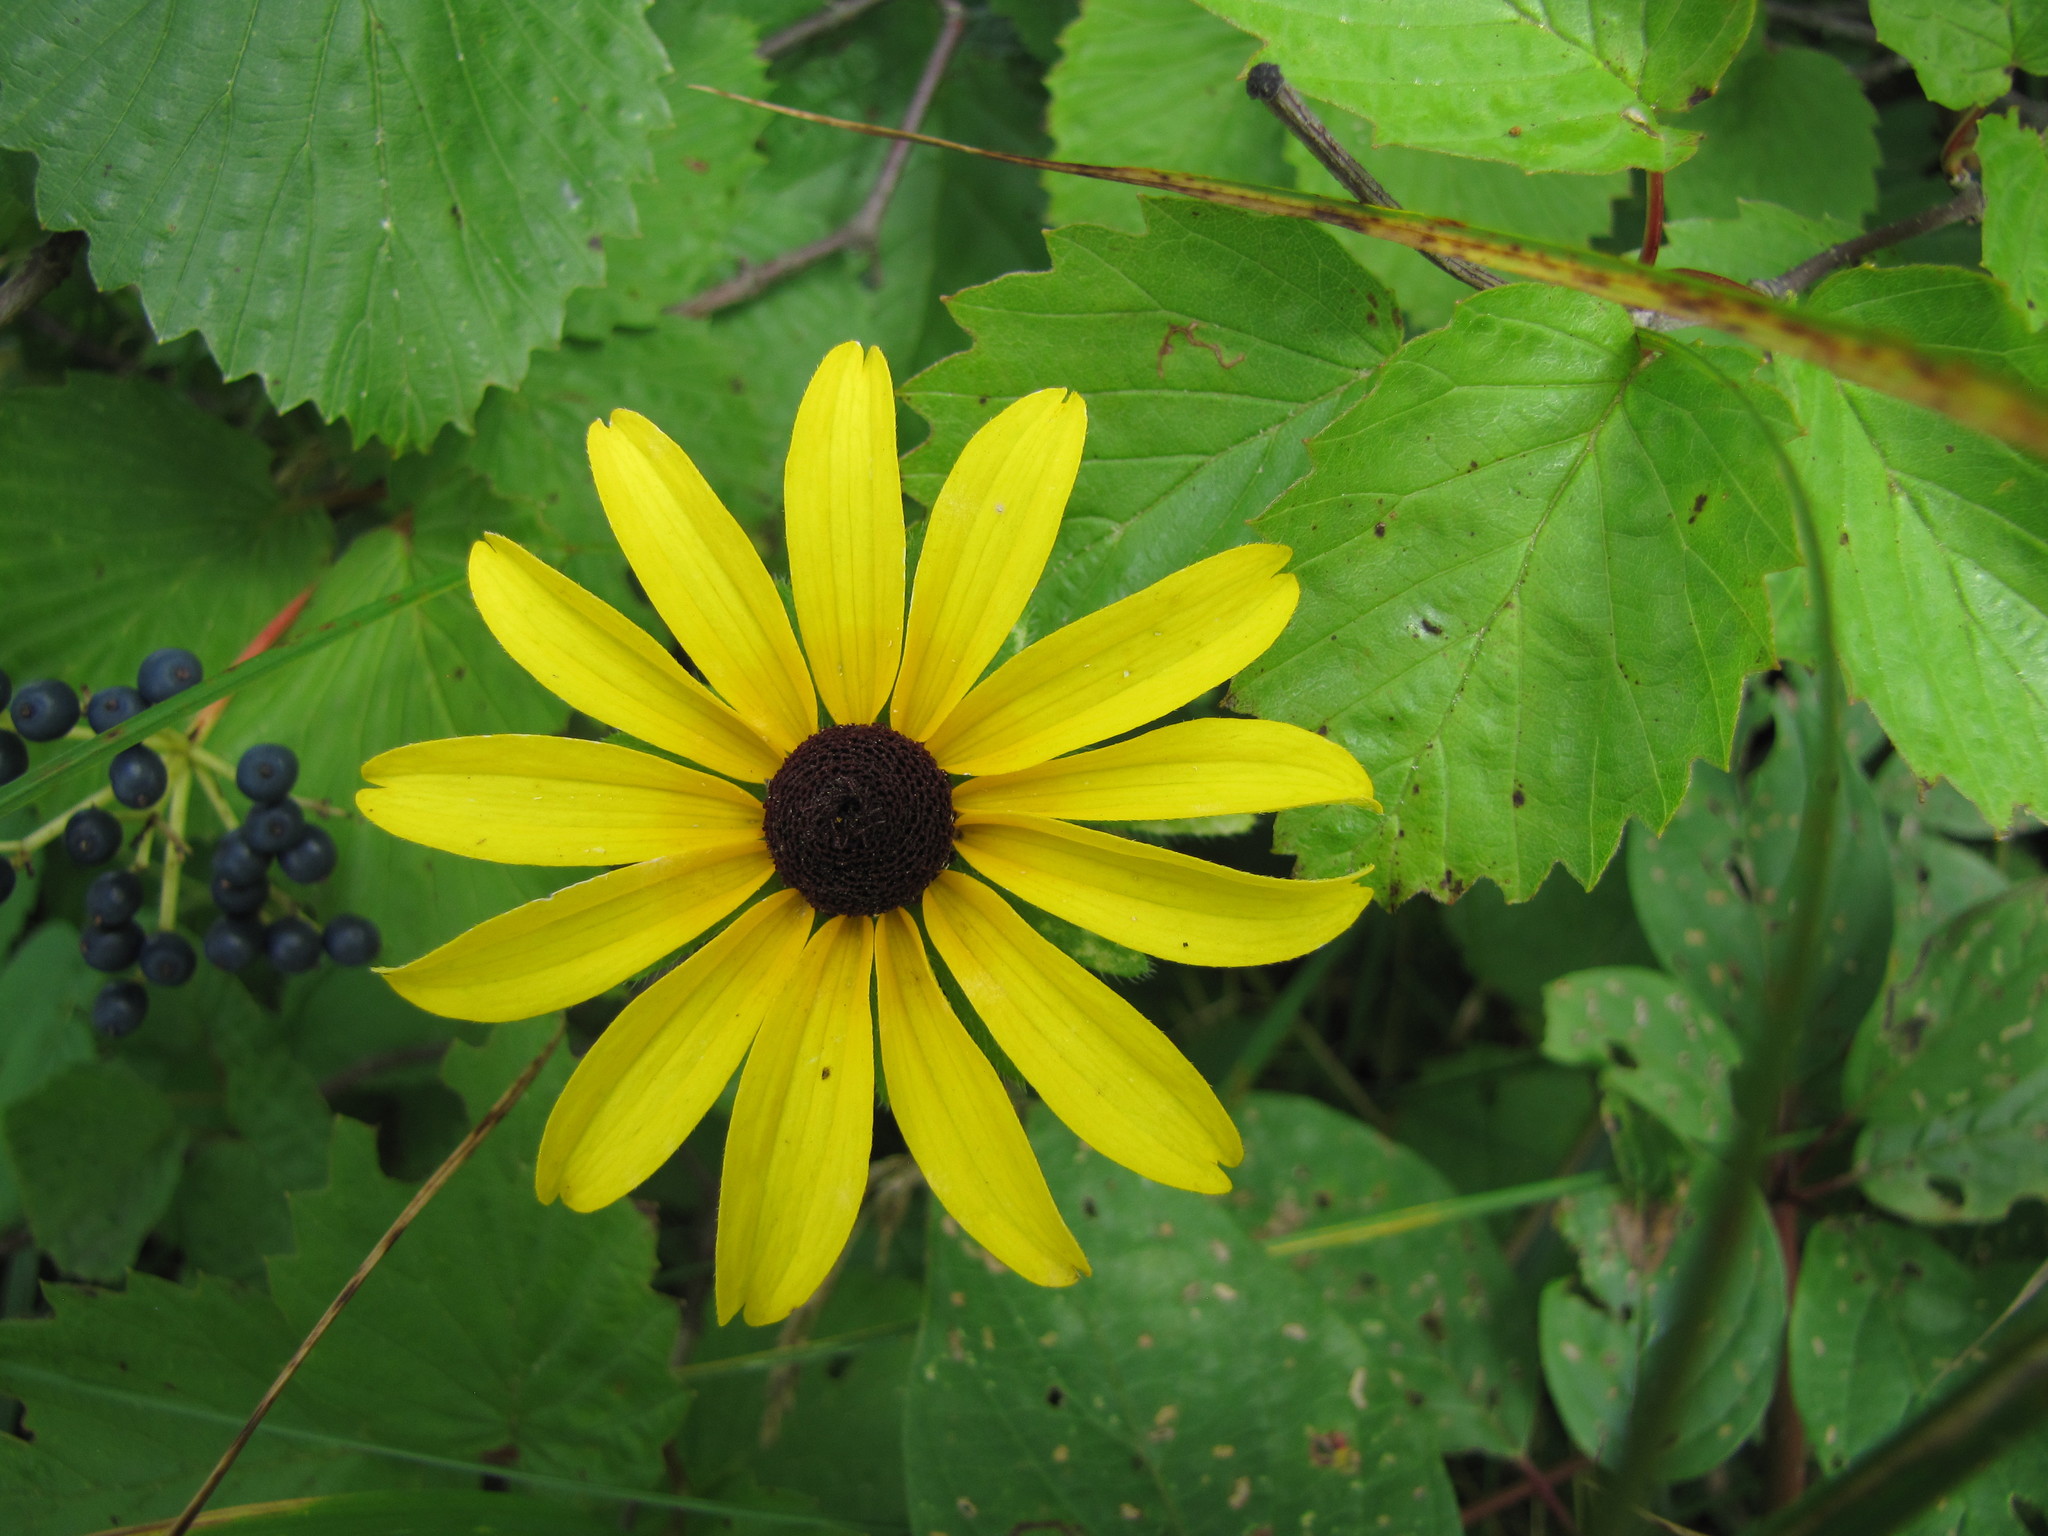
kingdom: Plantae
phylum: Tracheophyta
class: Magnoliopsida
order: Asterales
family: Asteraceae
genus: Rudbeckia
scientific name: Rudbeckia hirta
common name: Black-eyed-susan
